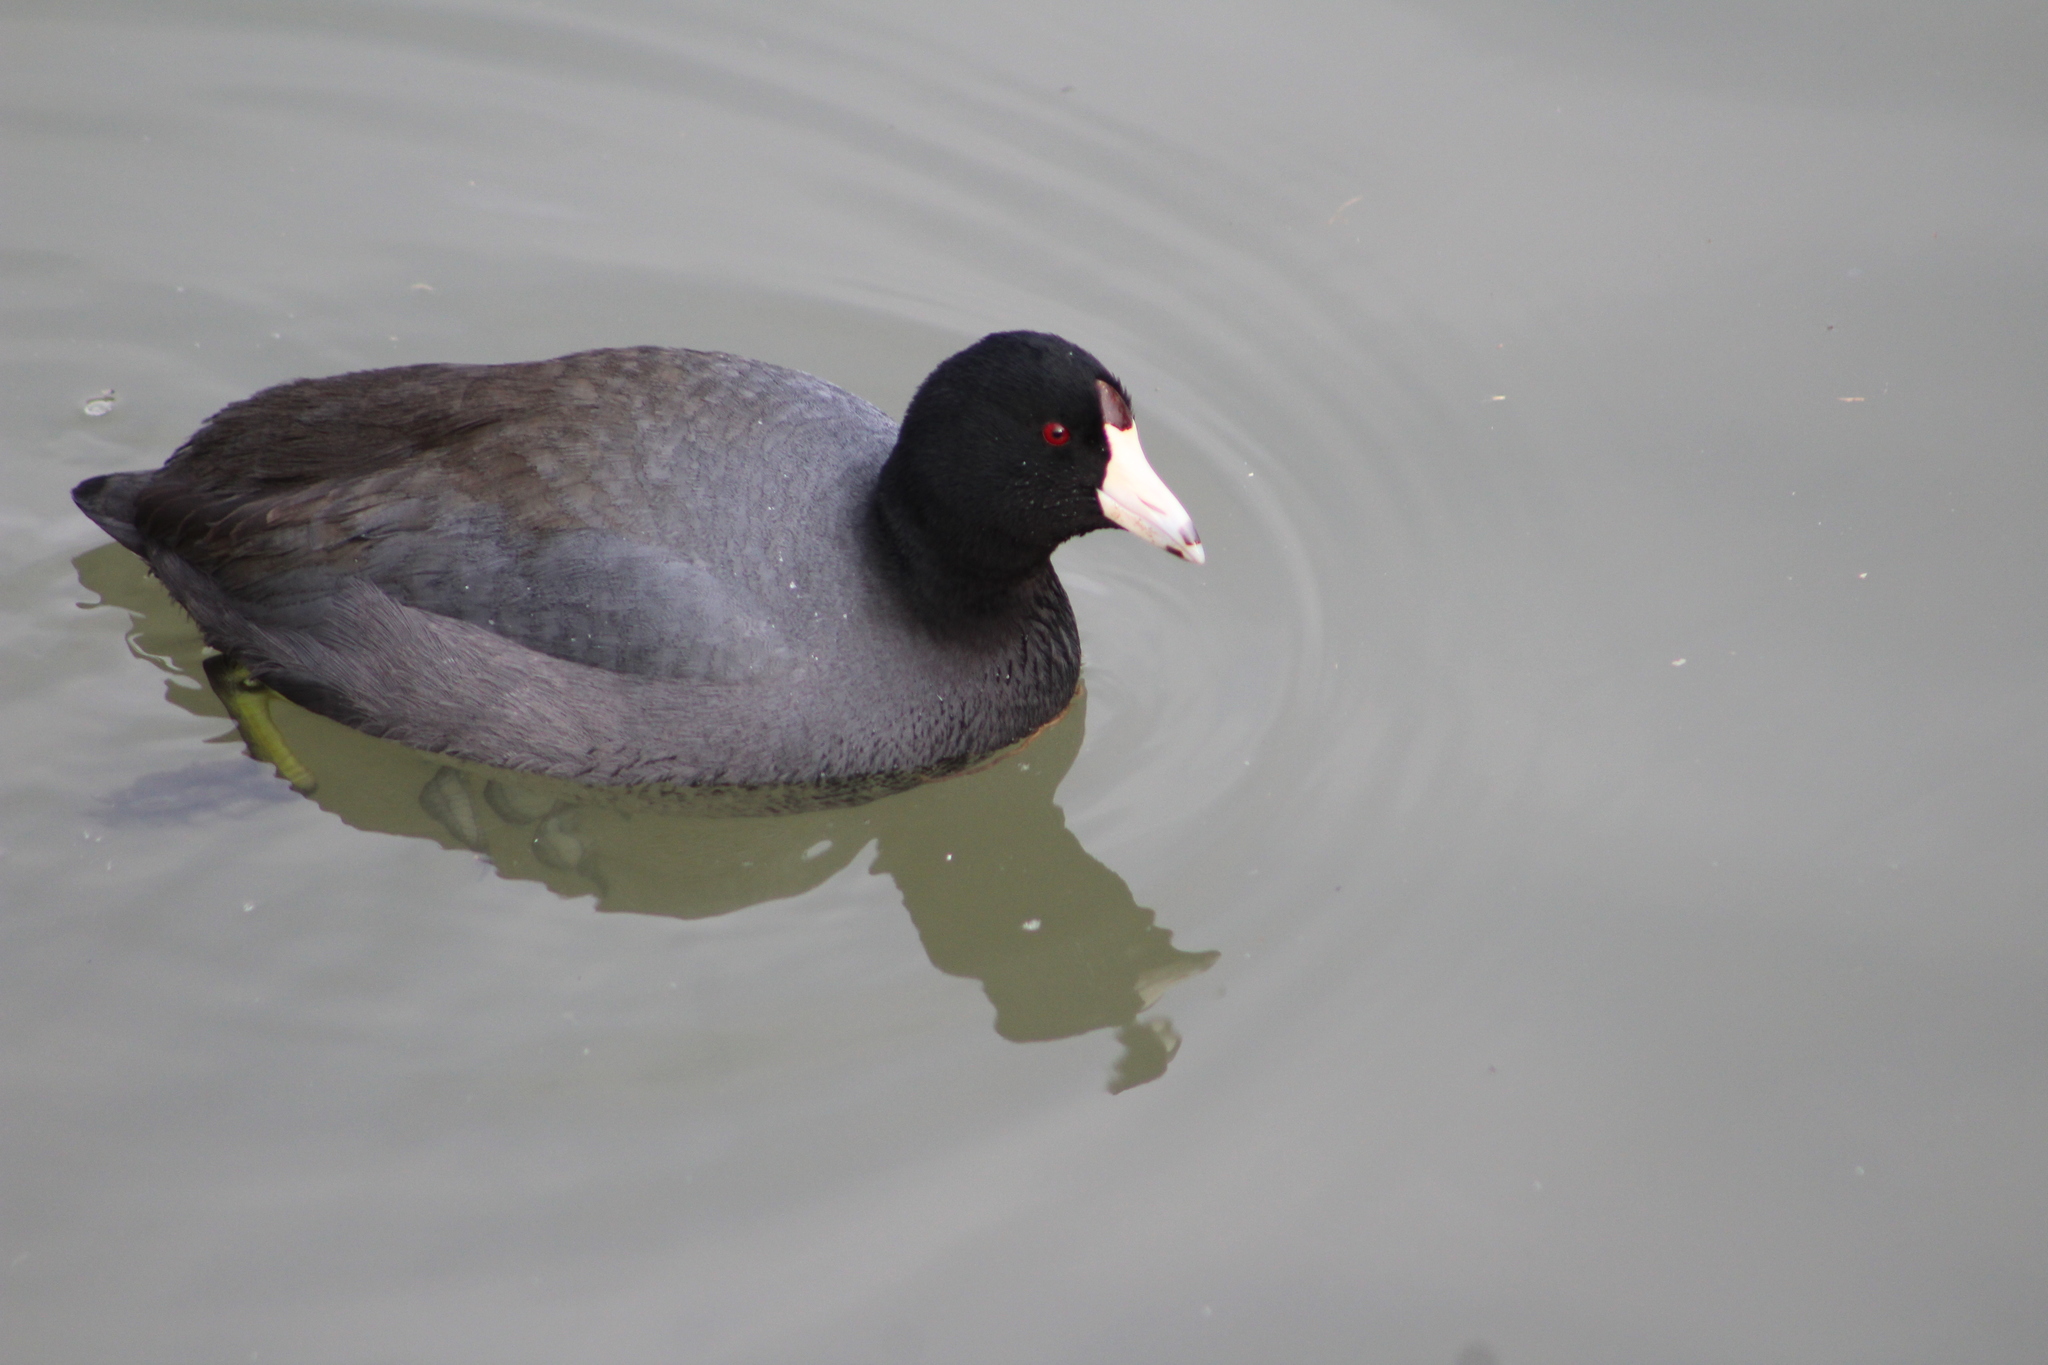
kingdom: Animalia
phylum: Chordata
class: Aves
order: Gruiformes
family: Rallidae
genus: Fulica
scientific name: Fulica americana
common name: American coot
